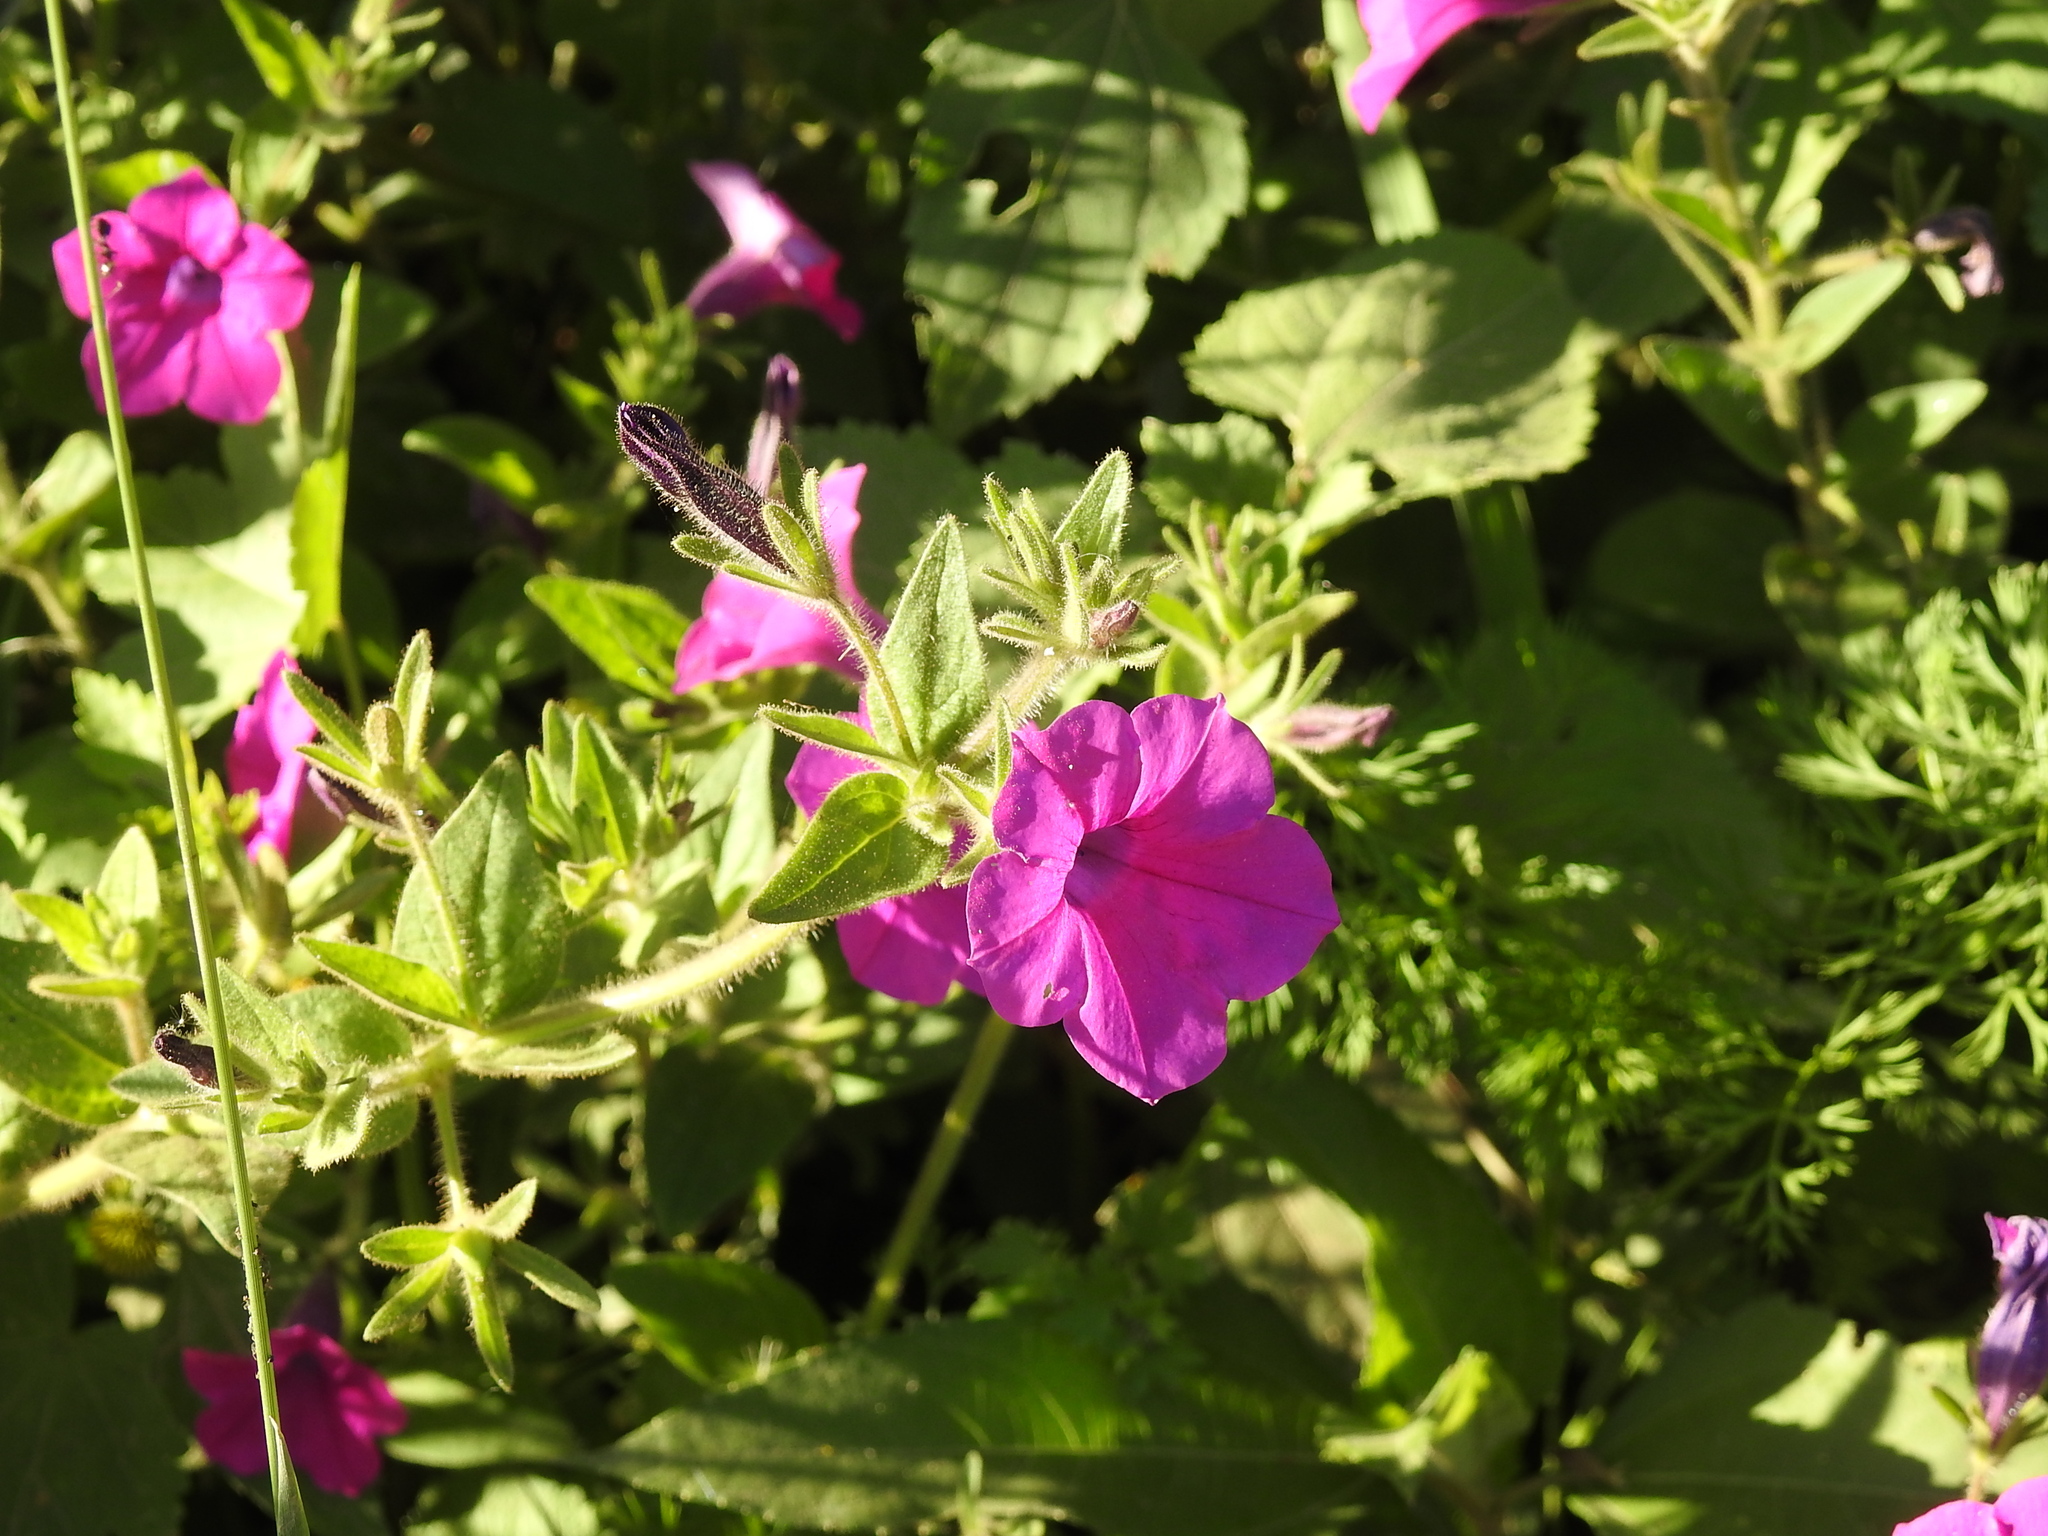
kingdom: Plantae
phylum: Tracheophyta
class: Magnoliopsida
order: Solanales
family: Solanaceae
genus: Petunia
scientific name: Petunia integrifolia
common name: Violet-flower petunia
